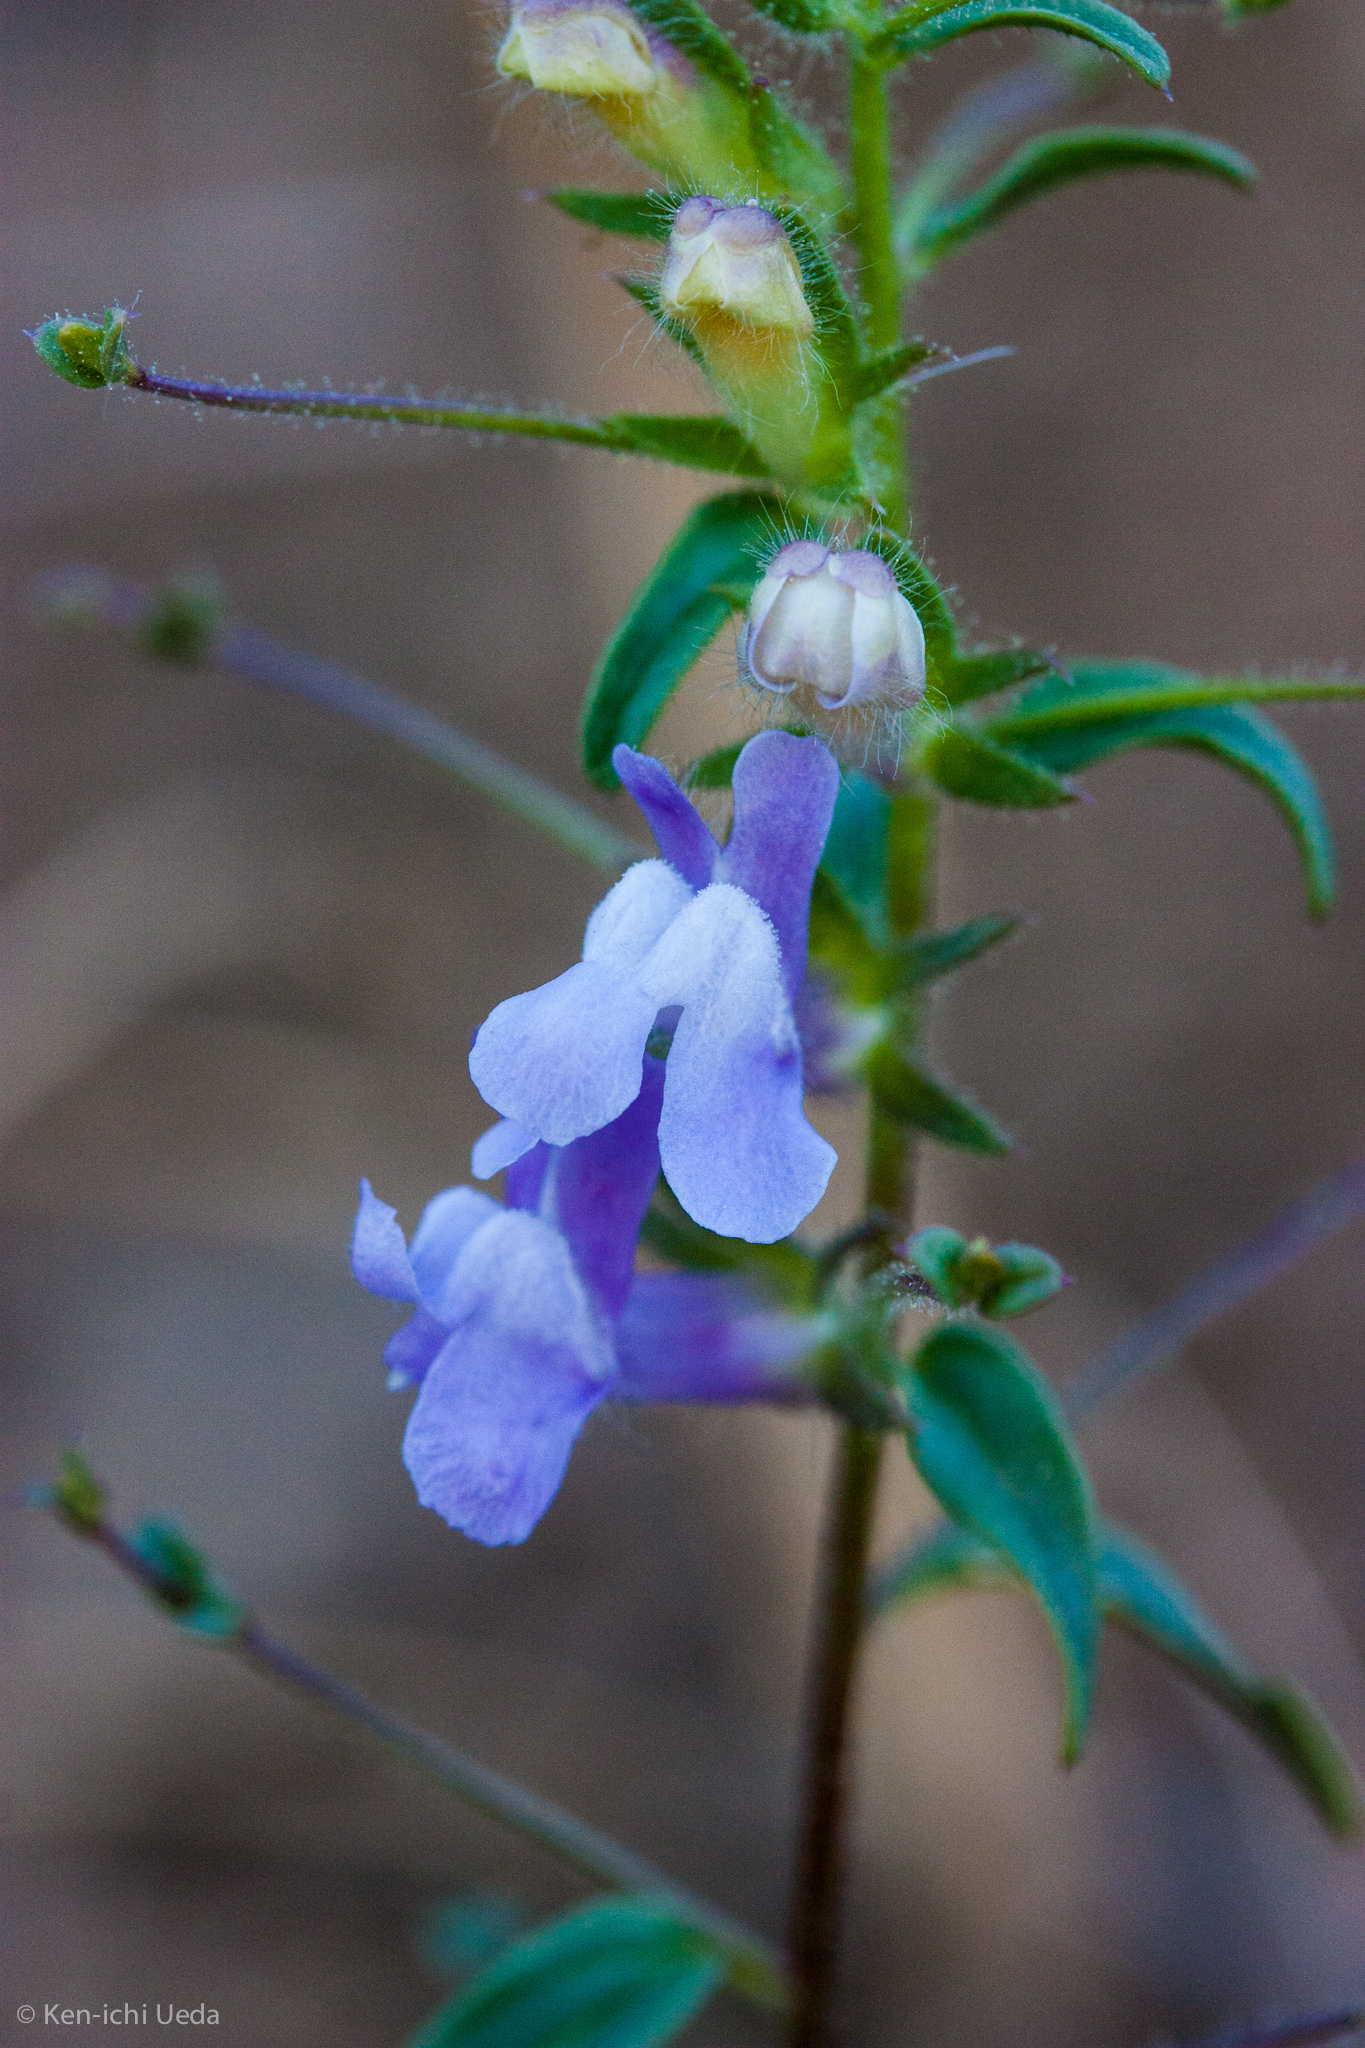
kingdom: Plantae
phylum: Tracheophyta
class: Magnoliopsida
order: Lamiales
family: Plantaginaceae
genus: Sairocarpus
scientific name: Sairocarpus vexillocalyculatus
